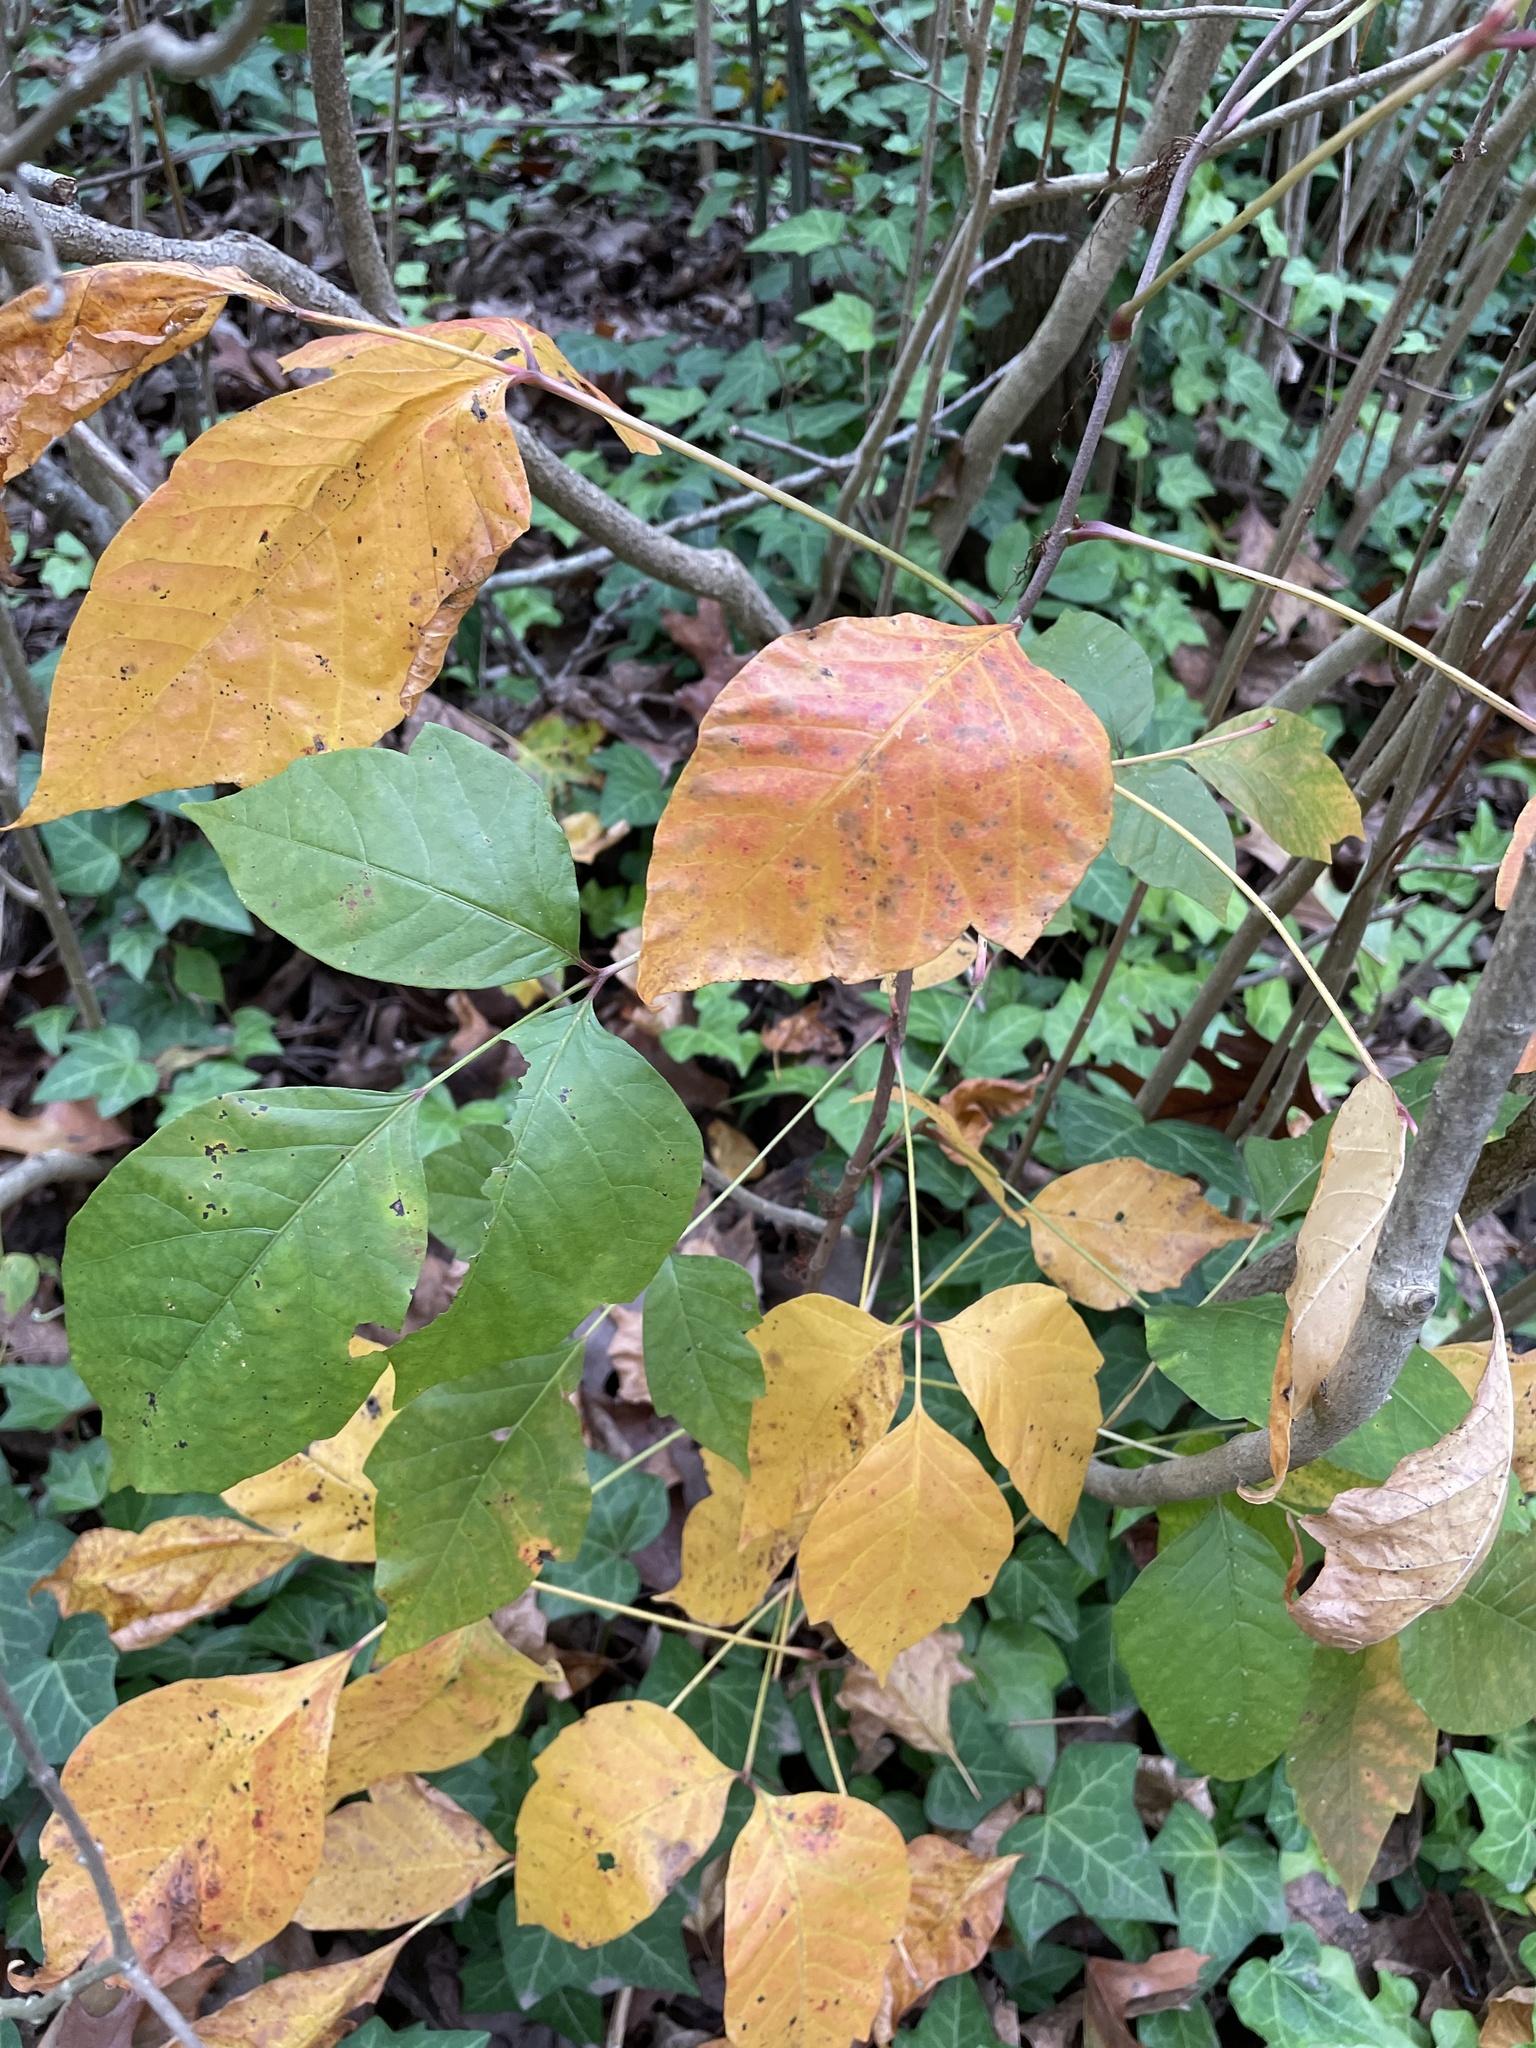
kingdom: Plantae
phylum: Tracheophyta
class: Magnoliopsida
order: Sapindales
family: Anacardiaceae
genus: Toxicodendron
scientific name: Toxicodendron radicans
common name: Poison ivy
